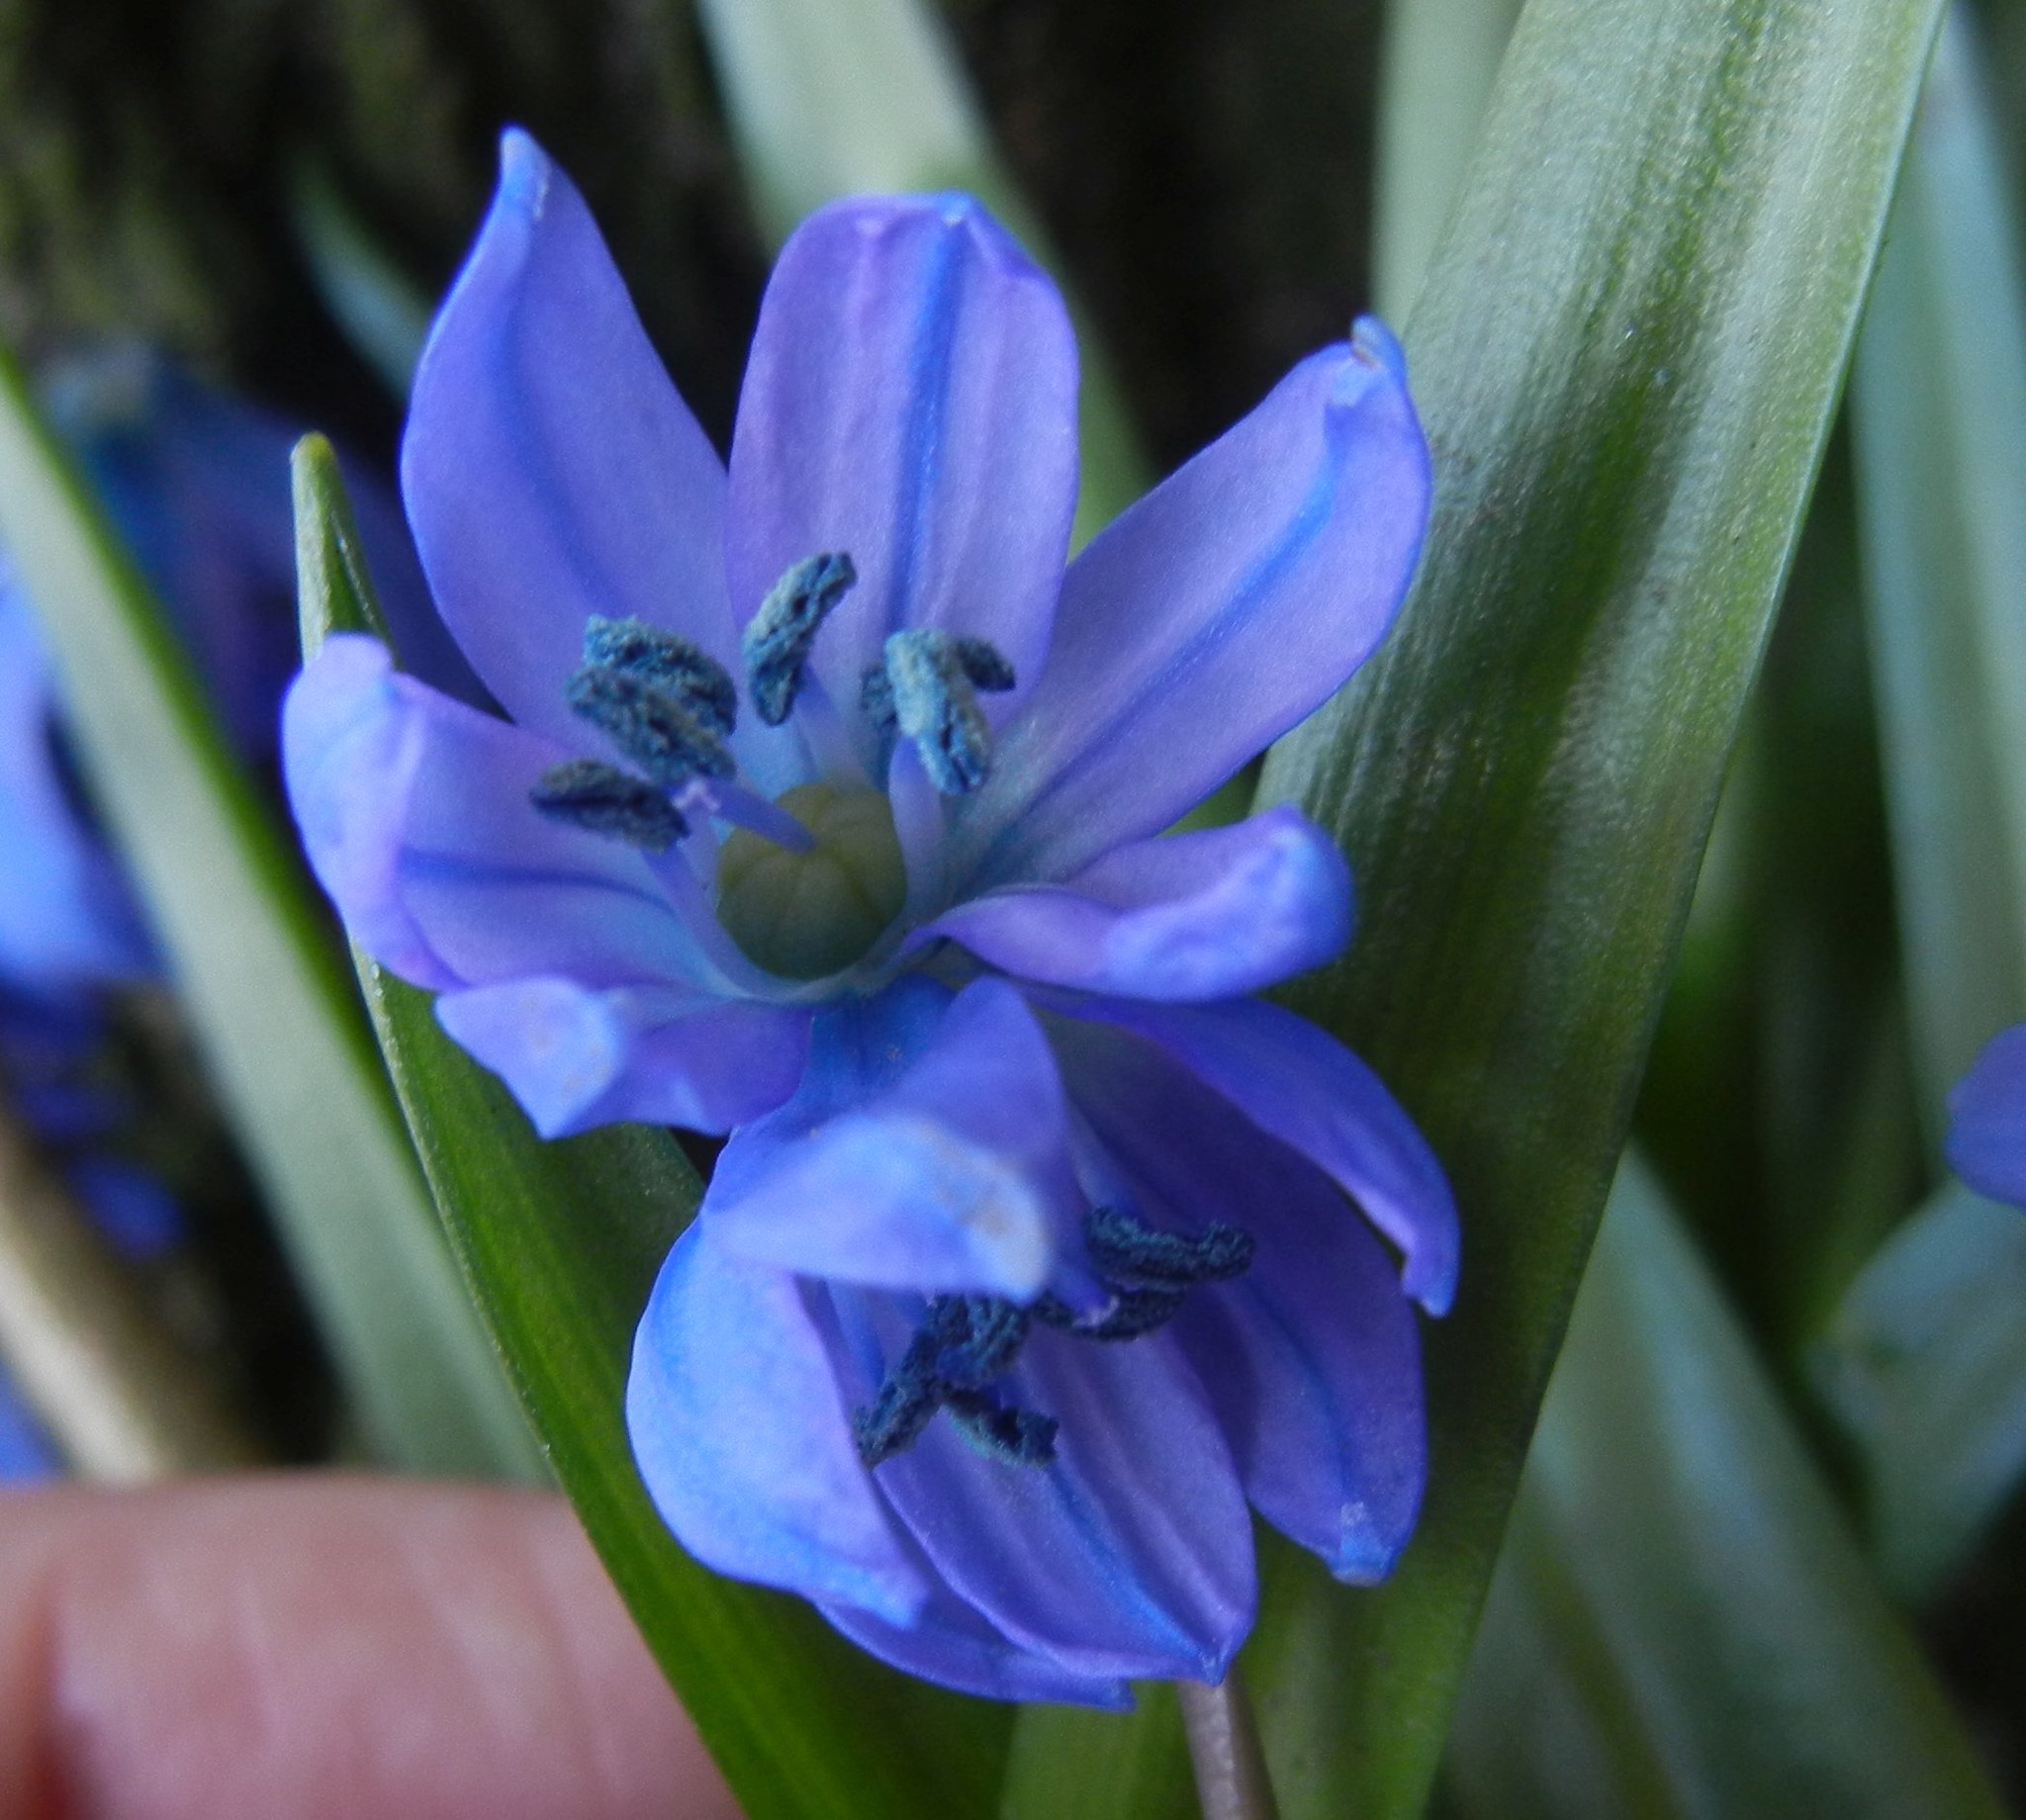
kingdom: Plantae
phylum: Tracheophyta
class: Liliopsida
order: Asparagales
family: Asparagaceae
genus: Scilla
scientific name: Scilla siberica
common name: Siberian squill
